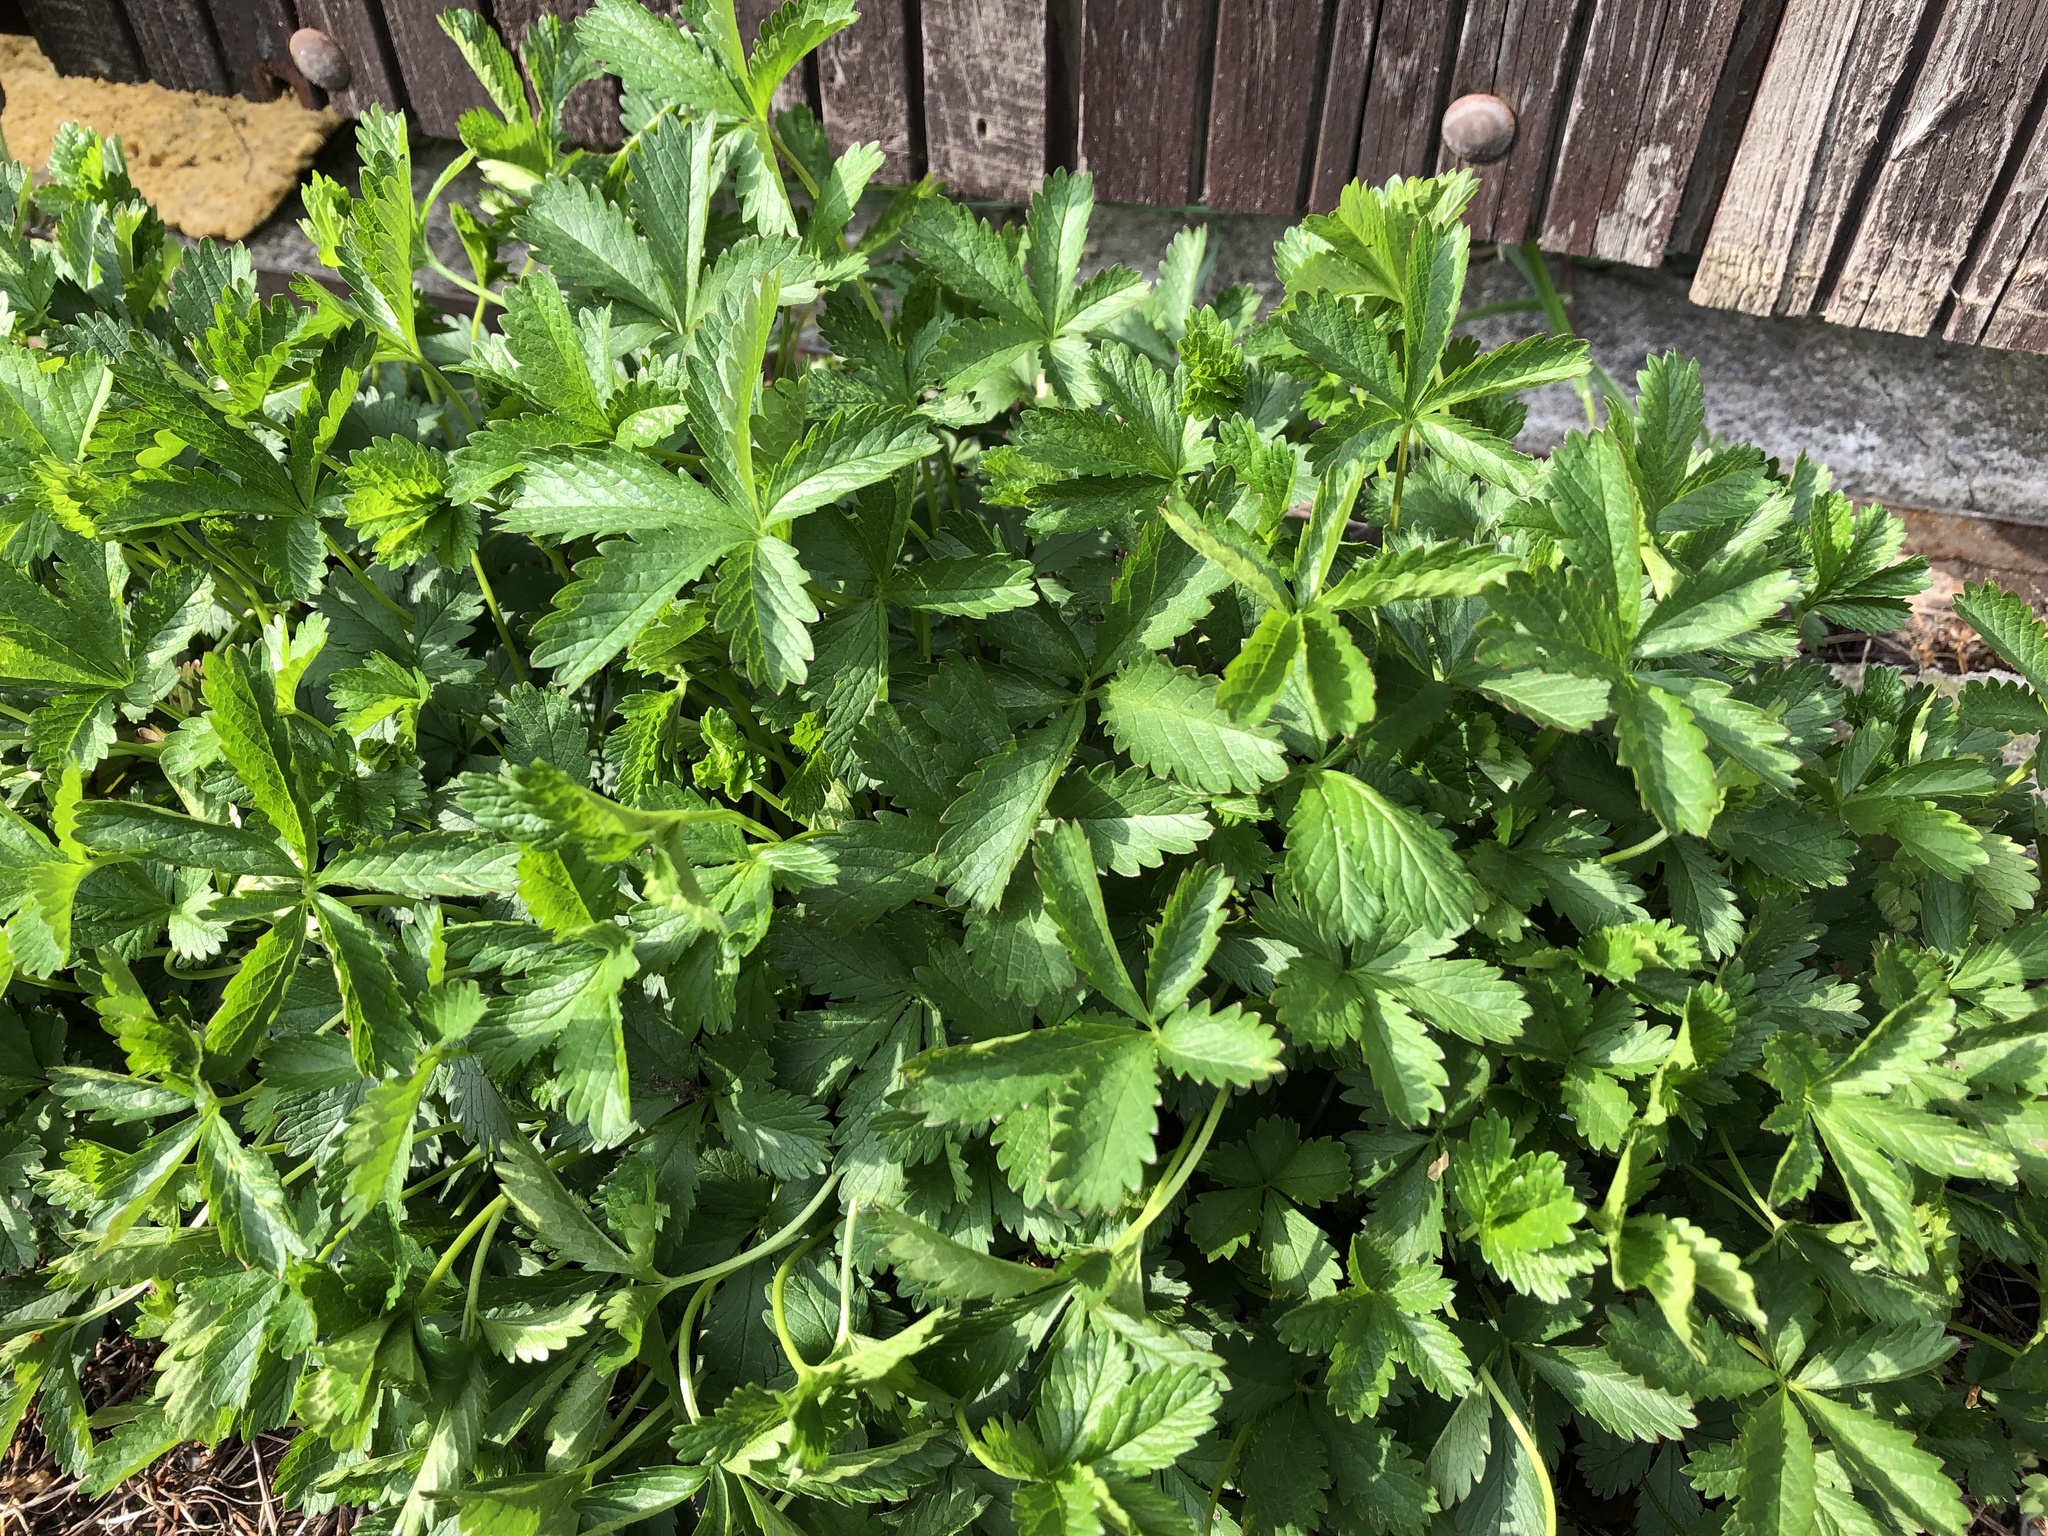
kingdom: Plantae
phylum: Tracheophyta
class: Magnoliopsida
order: Rosales
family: Rosaceae
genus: Potentilla
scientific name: Potentilla reptans
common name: Creeping cinquefoil
